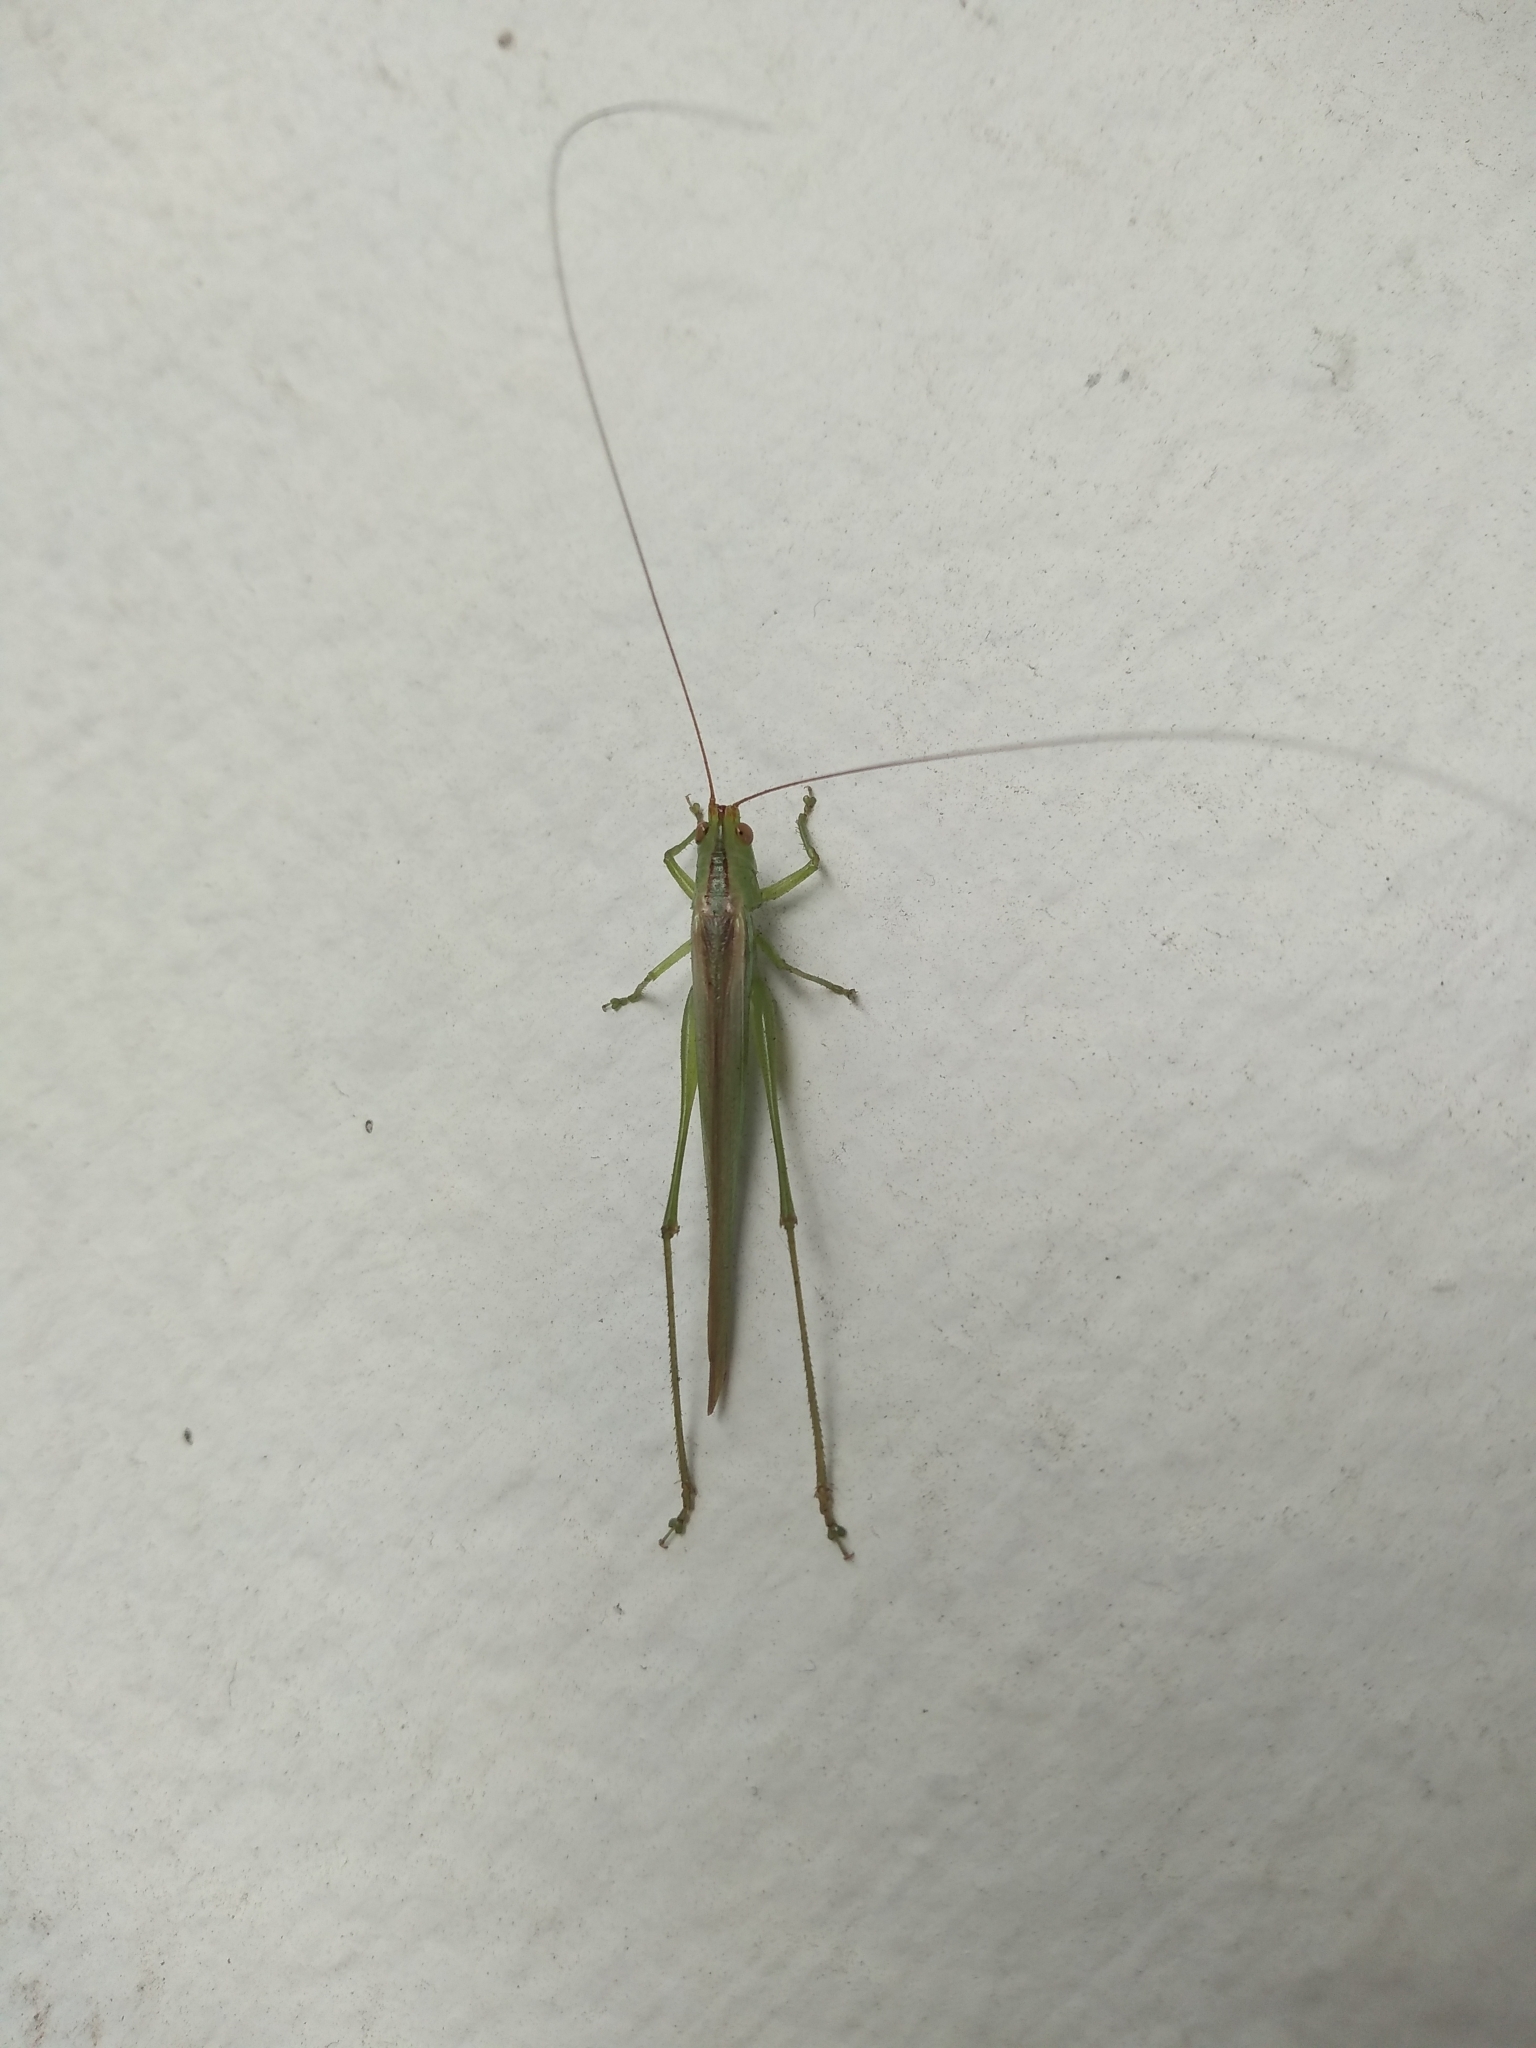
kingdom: Animalia
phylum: Arthropoda
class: Insecta
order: Orthoptera
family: Tettigoniidae
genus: Conocephalus
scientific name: Conocephalus longipes
